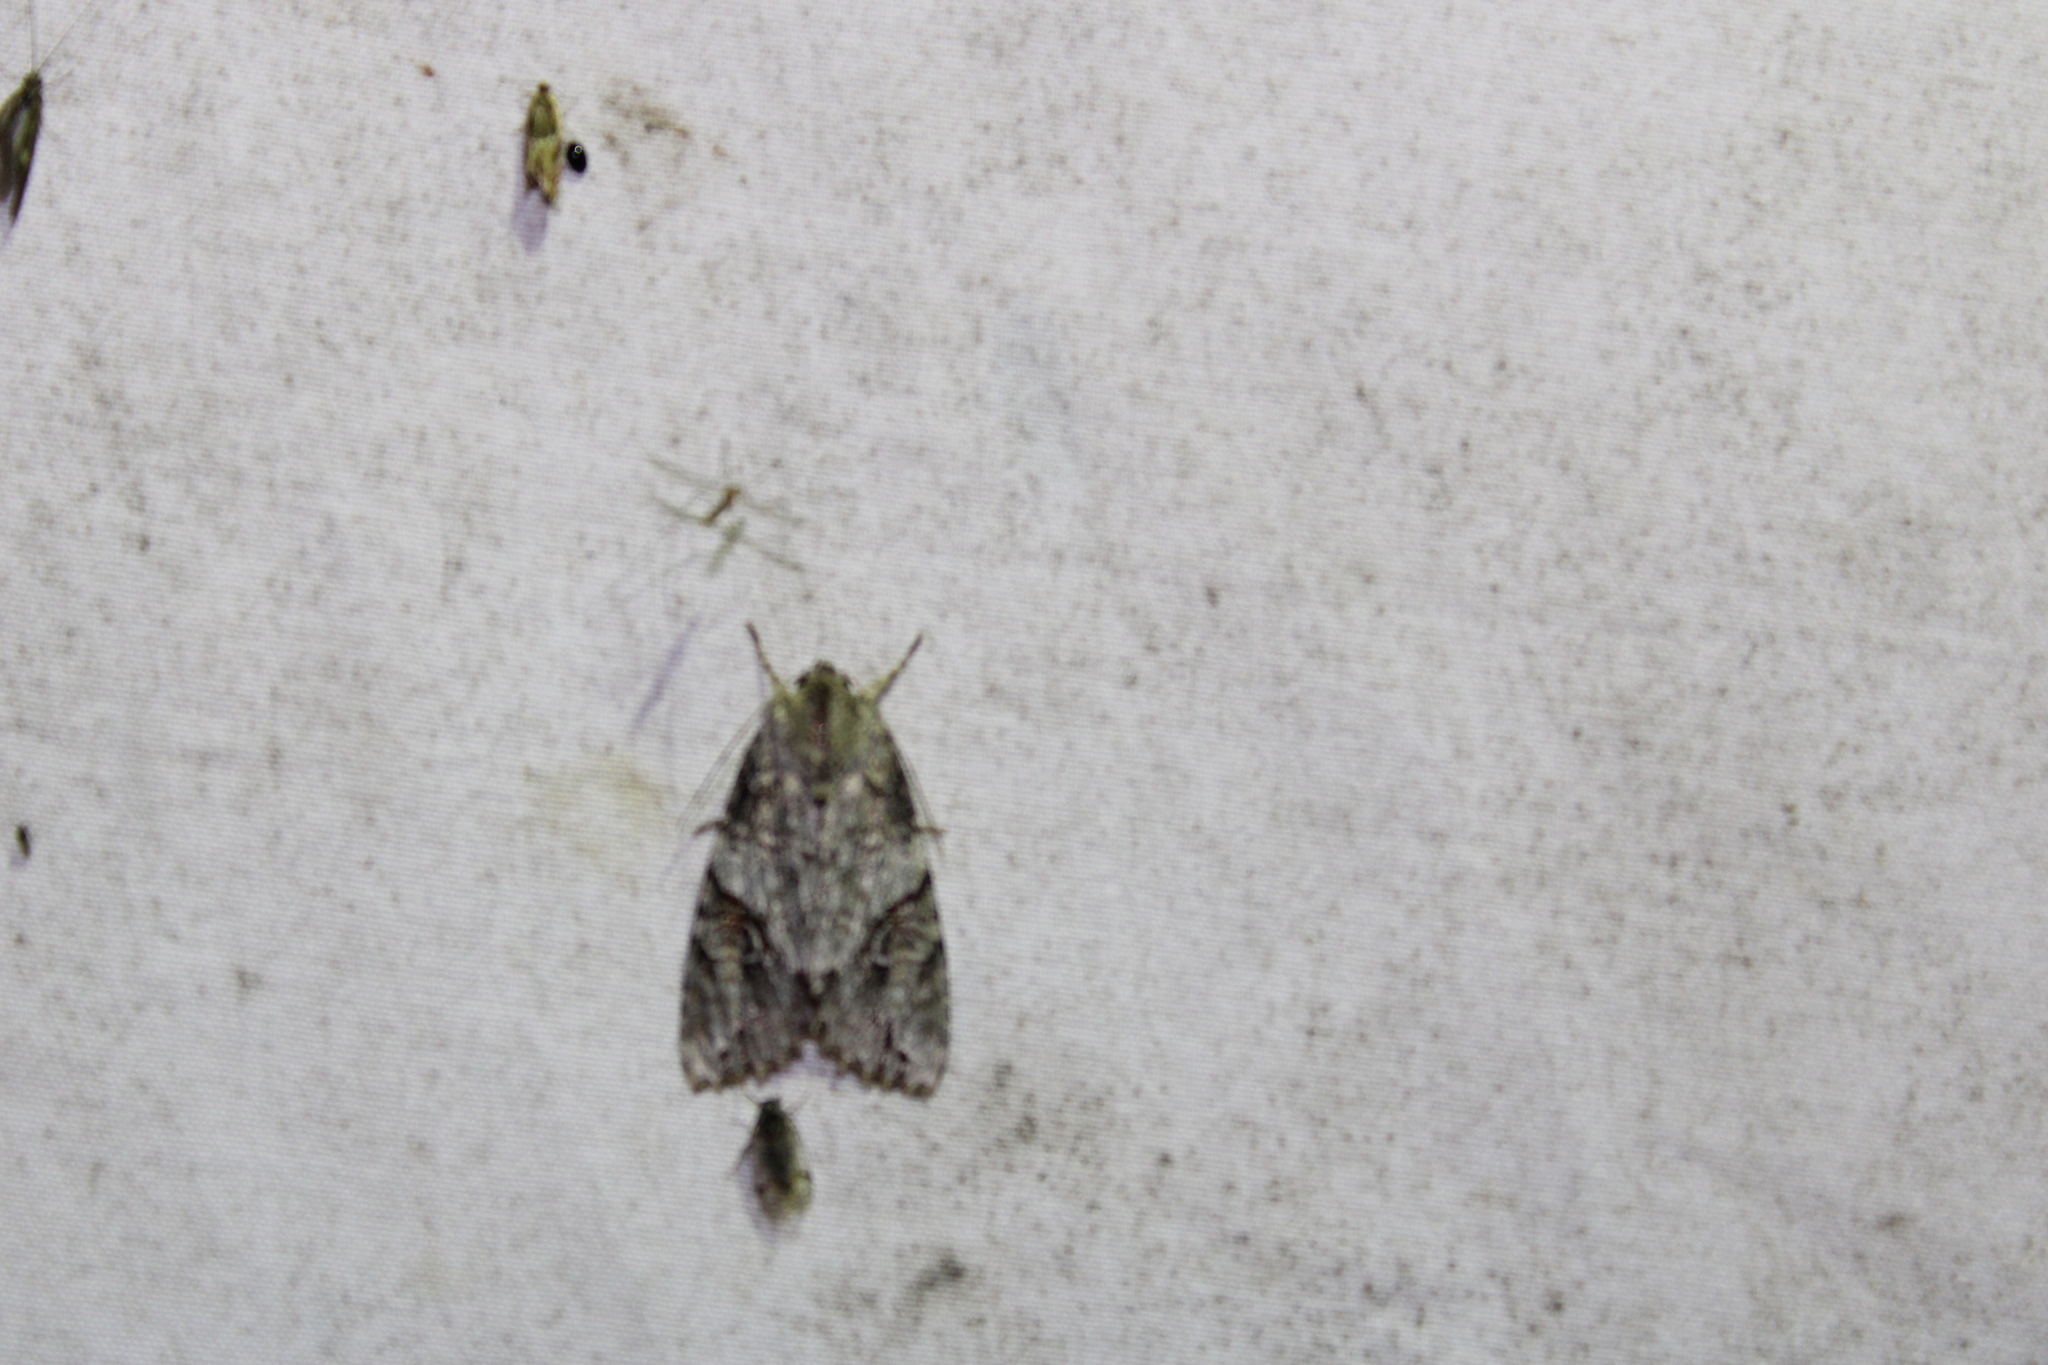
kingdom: Animalia
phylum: Arthropoda
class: Insecta
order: Lepidoptera
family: Noctuidae
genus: Achatia
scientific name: Achatia latex
